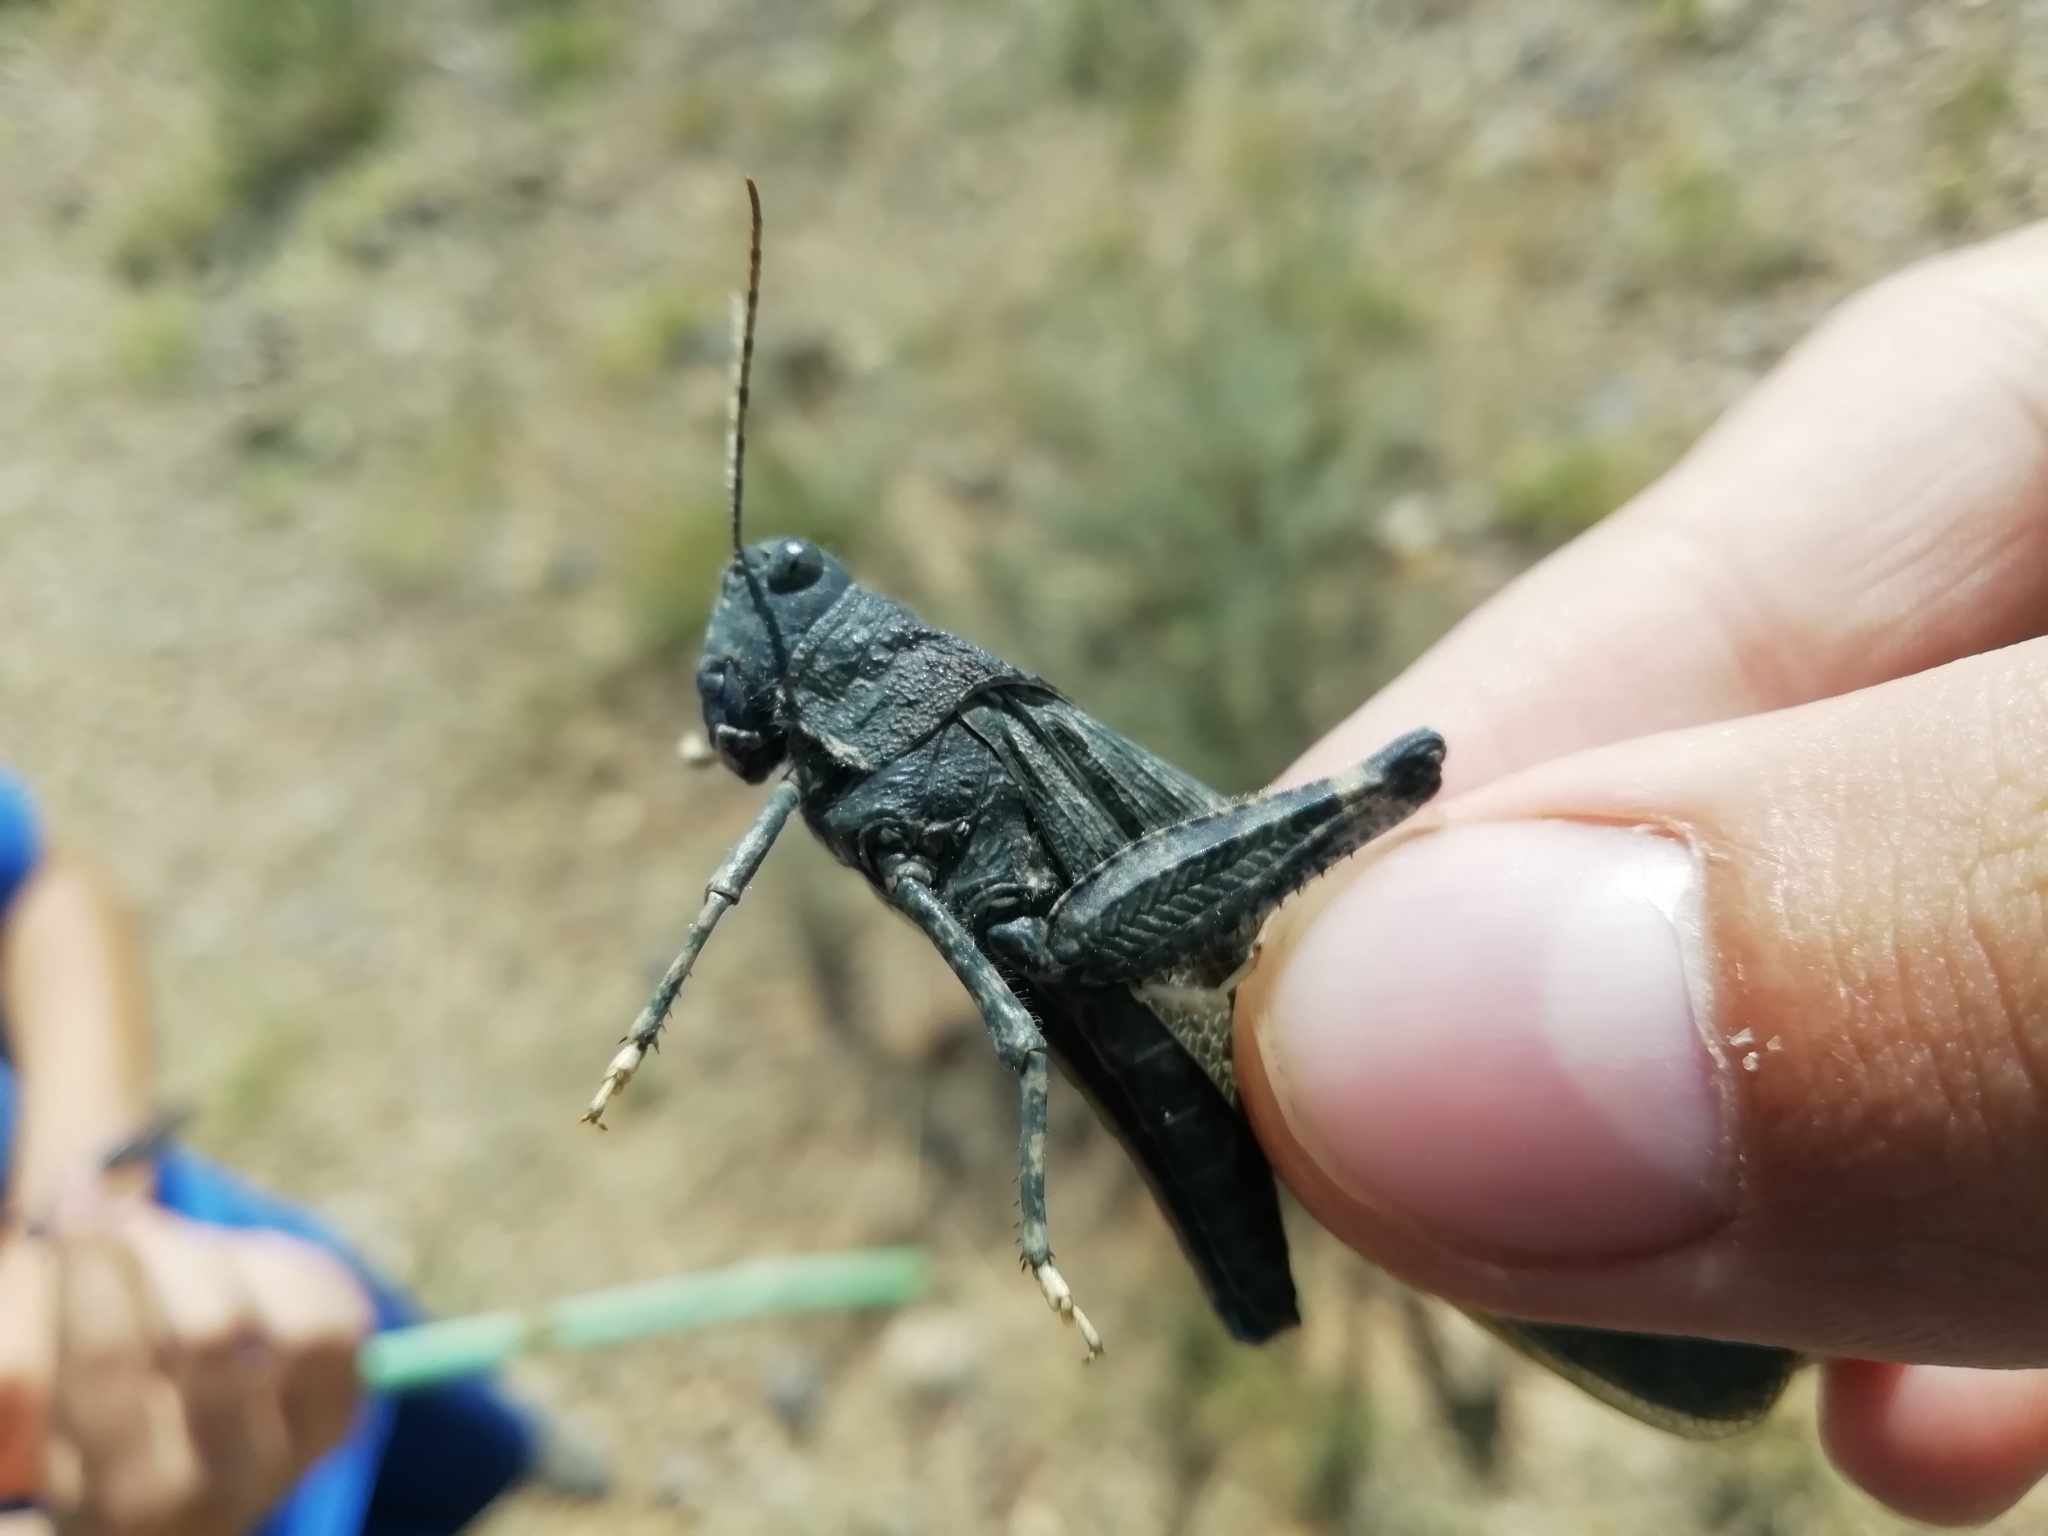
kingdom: Animalia
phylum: Arthropoda
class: Insecta
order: Orthoptera
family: Acrididae
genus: Bryodema
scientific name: Bryodema gebleri
